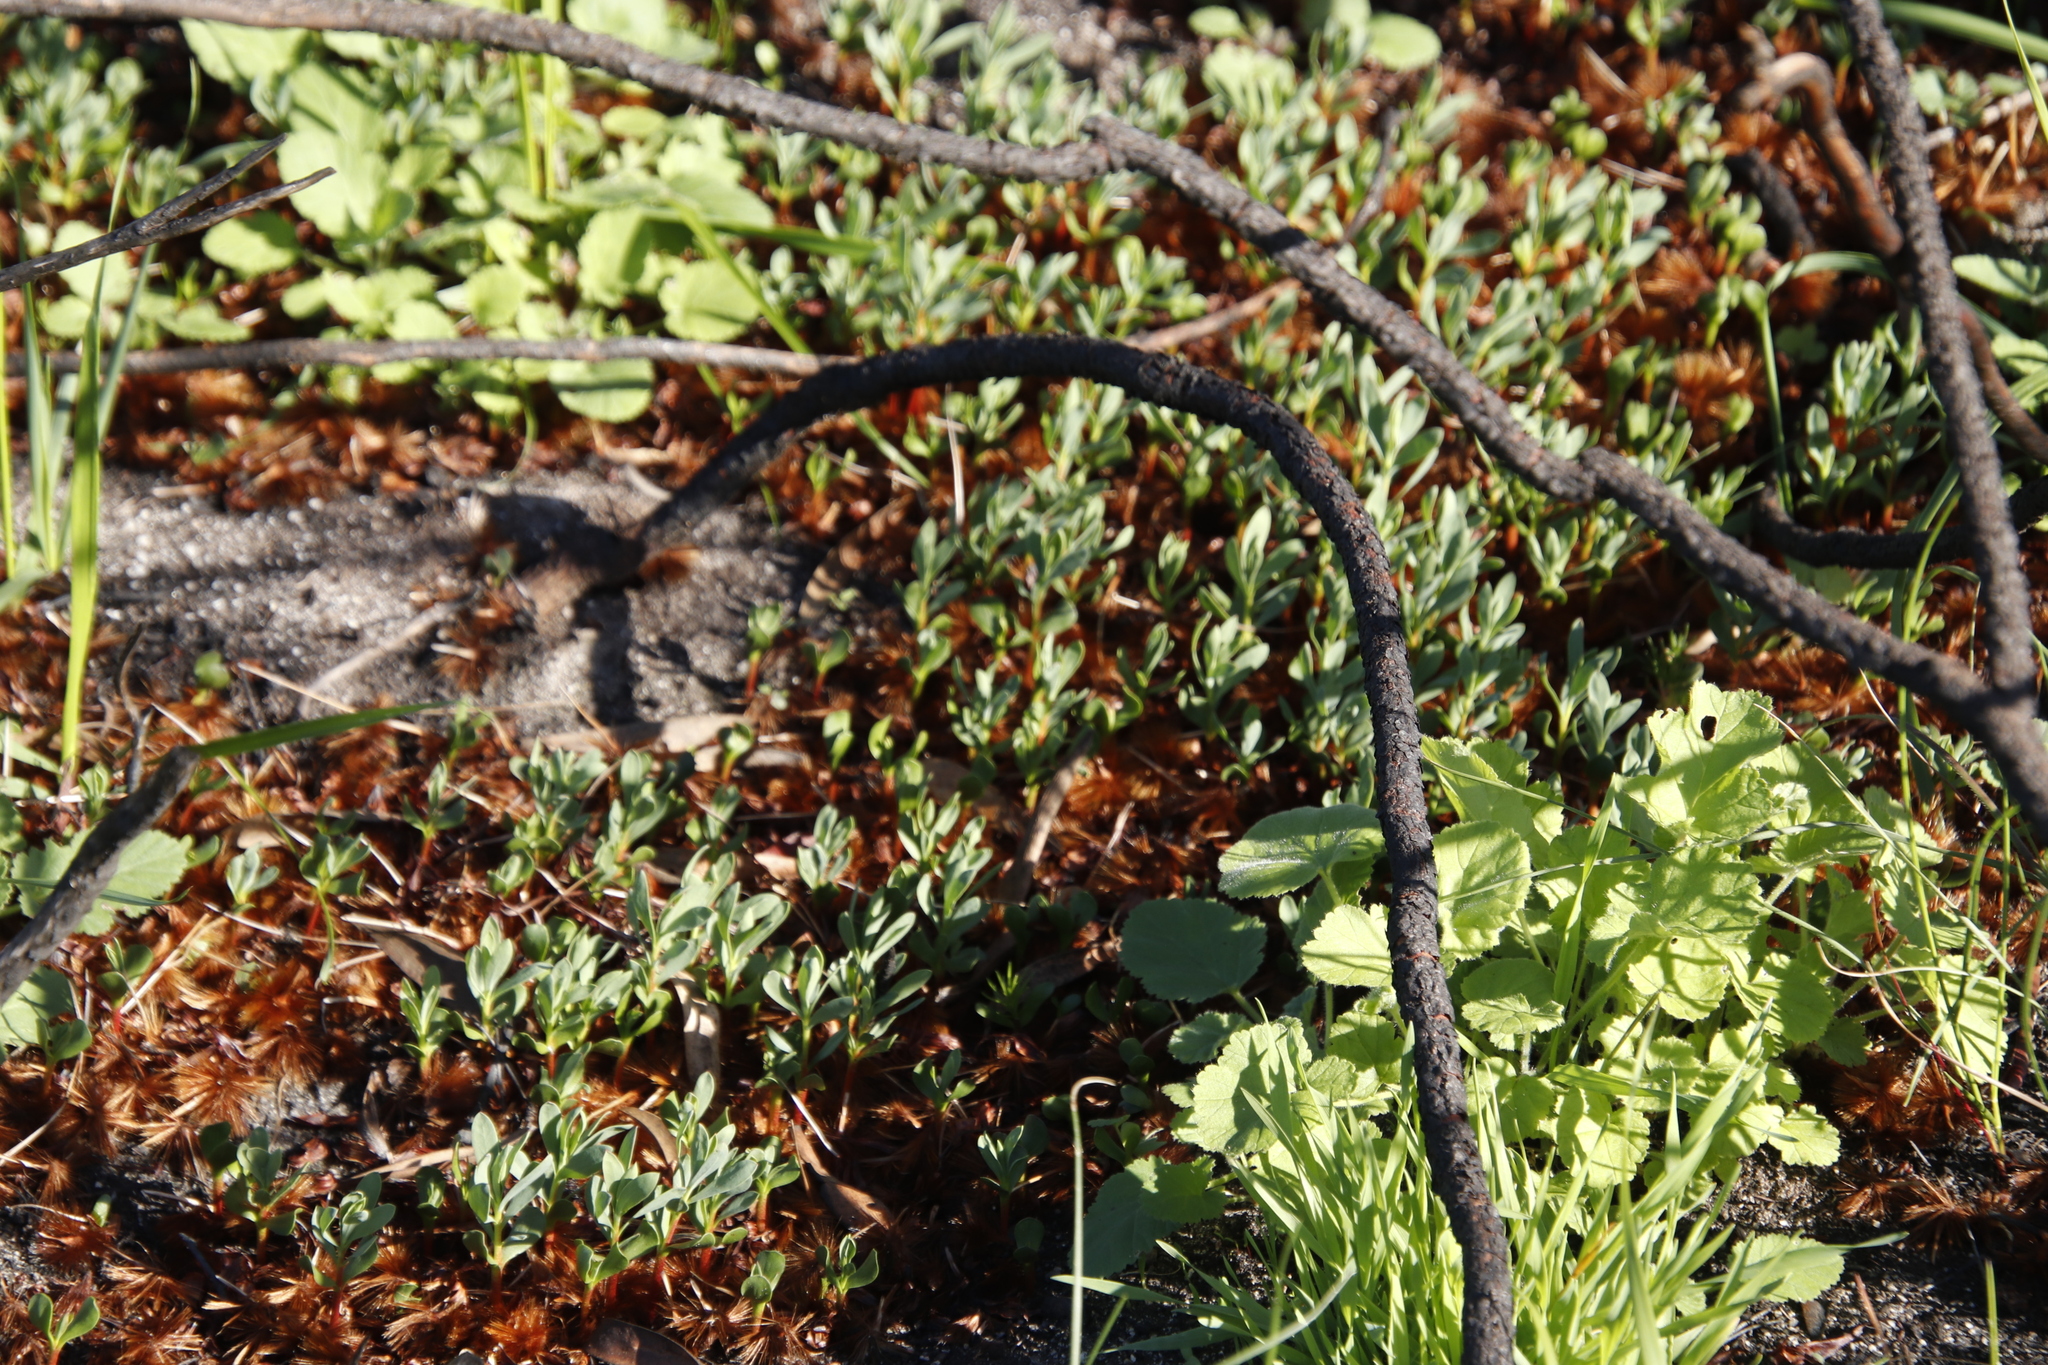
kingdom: Plantae
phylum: Tracheophyta
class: Magnoliopsida
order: Proteales
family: Proteaceae
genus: Protea
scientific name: Protea repens
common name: Sugarbush
